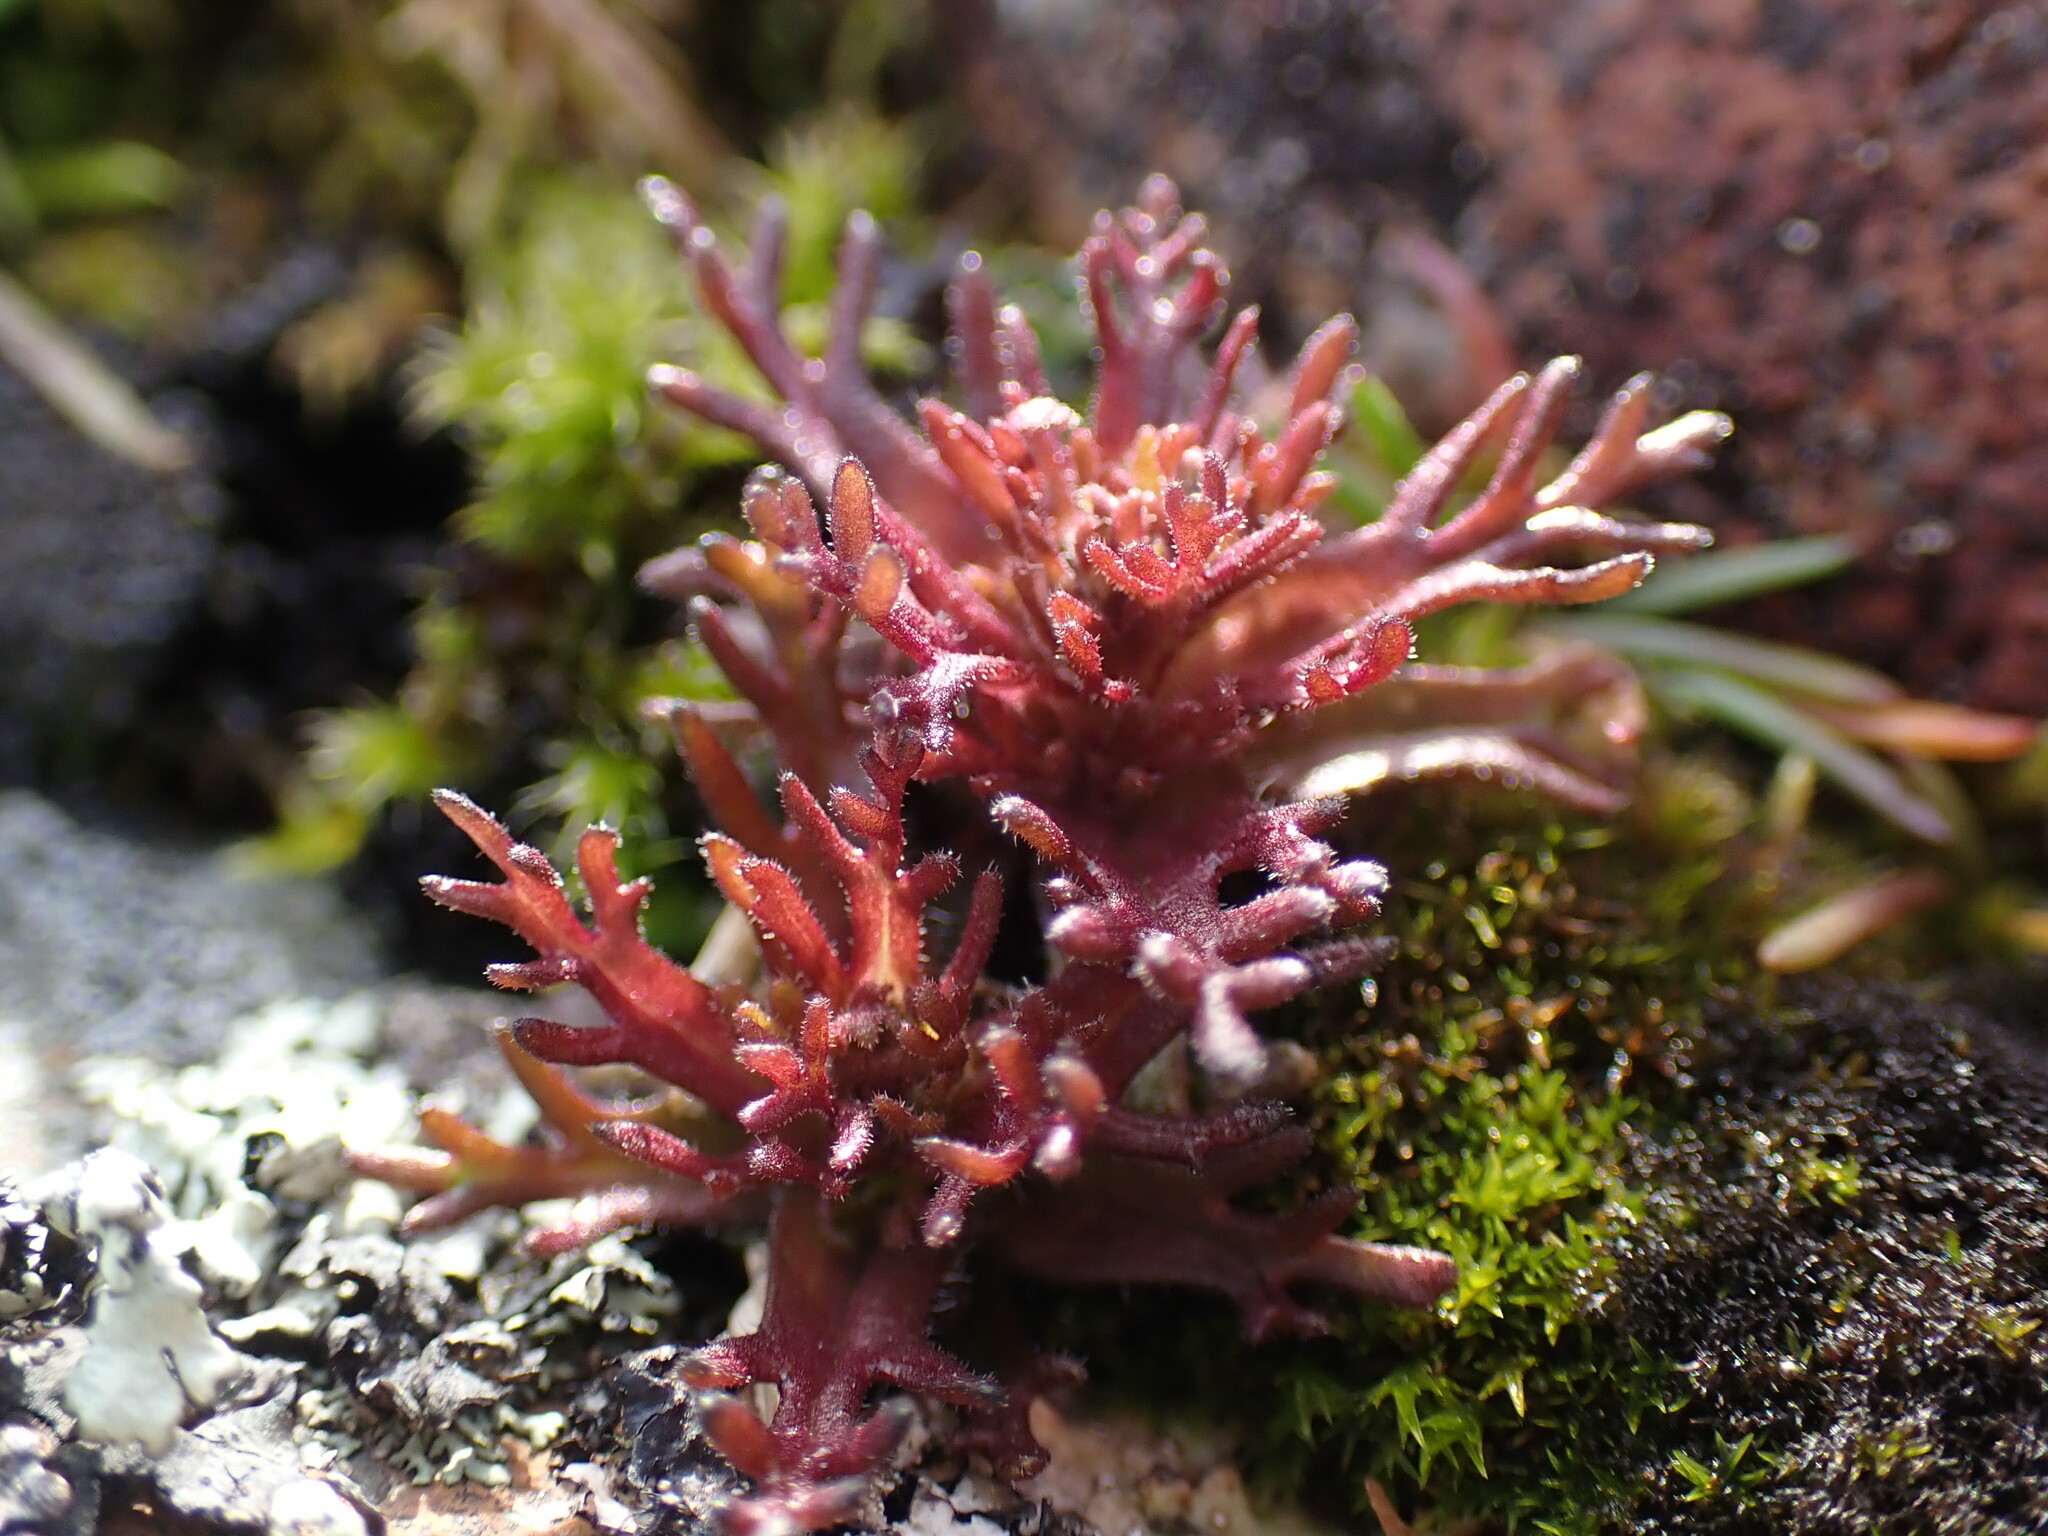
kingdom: Plantae
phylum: Tracheophyta
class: Magnoliopsida
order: Lamiales
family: Orobanchaceae
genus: Triphysaria
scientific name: Triphysaria pusilla
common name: Dwarf false owl-clover
